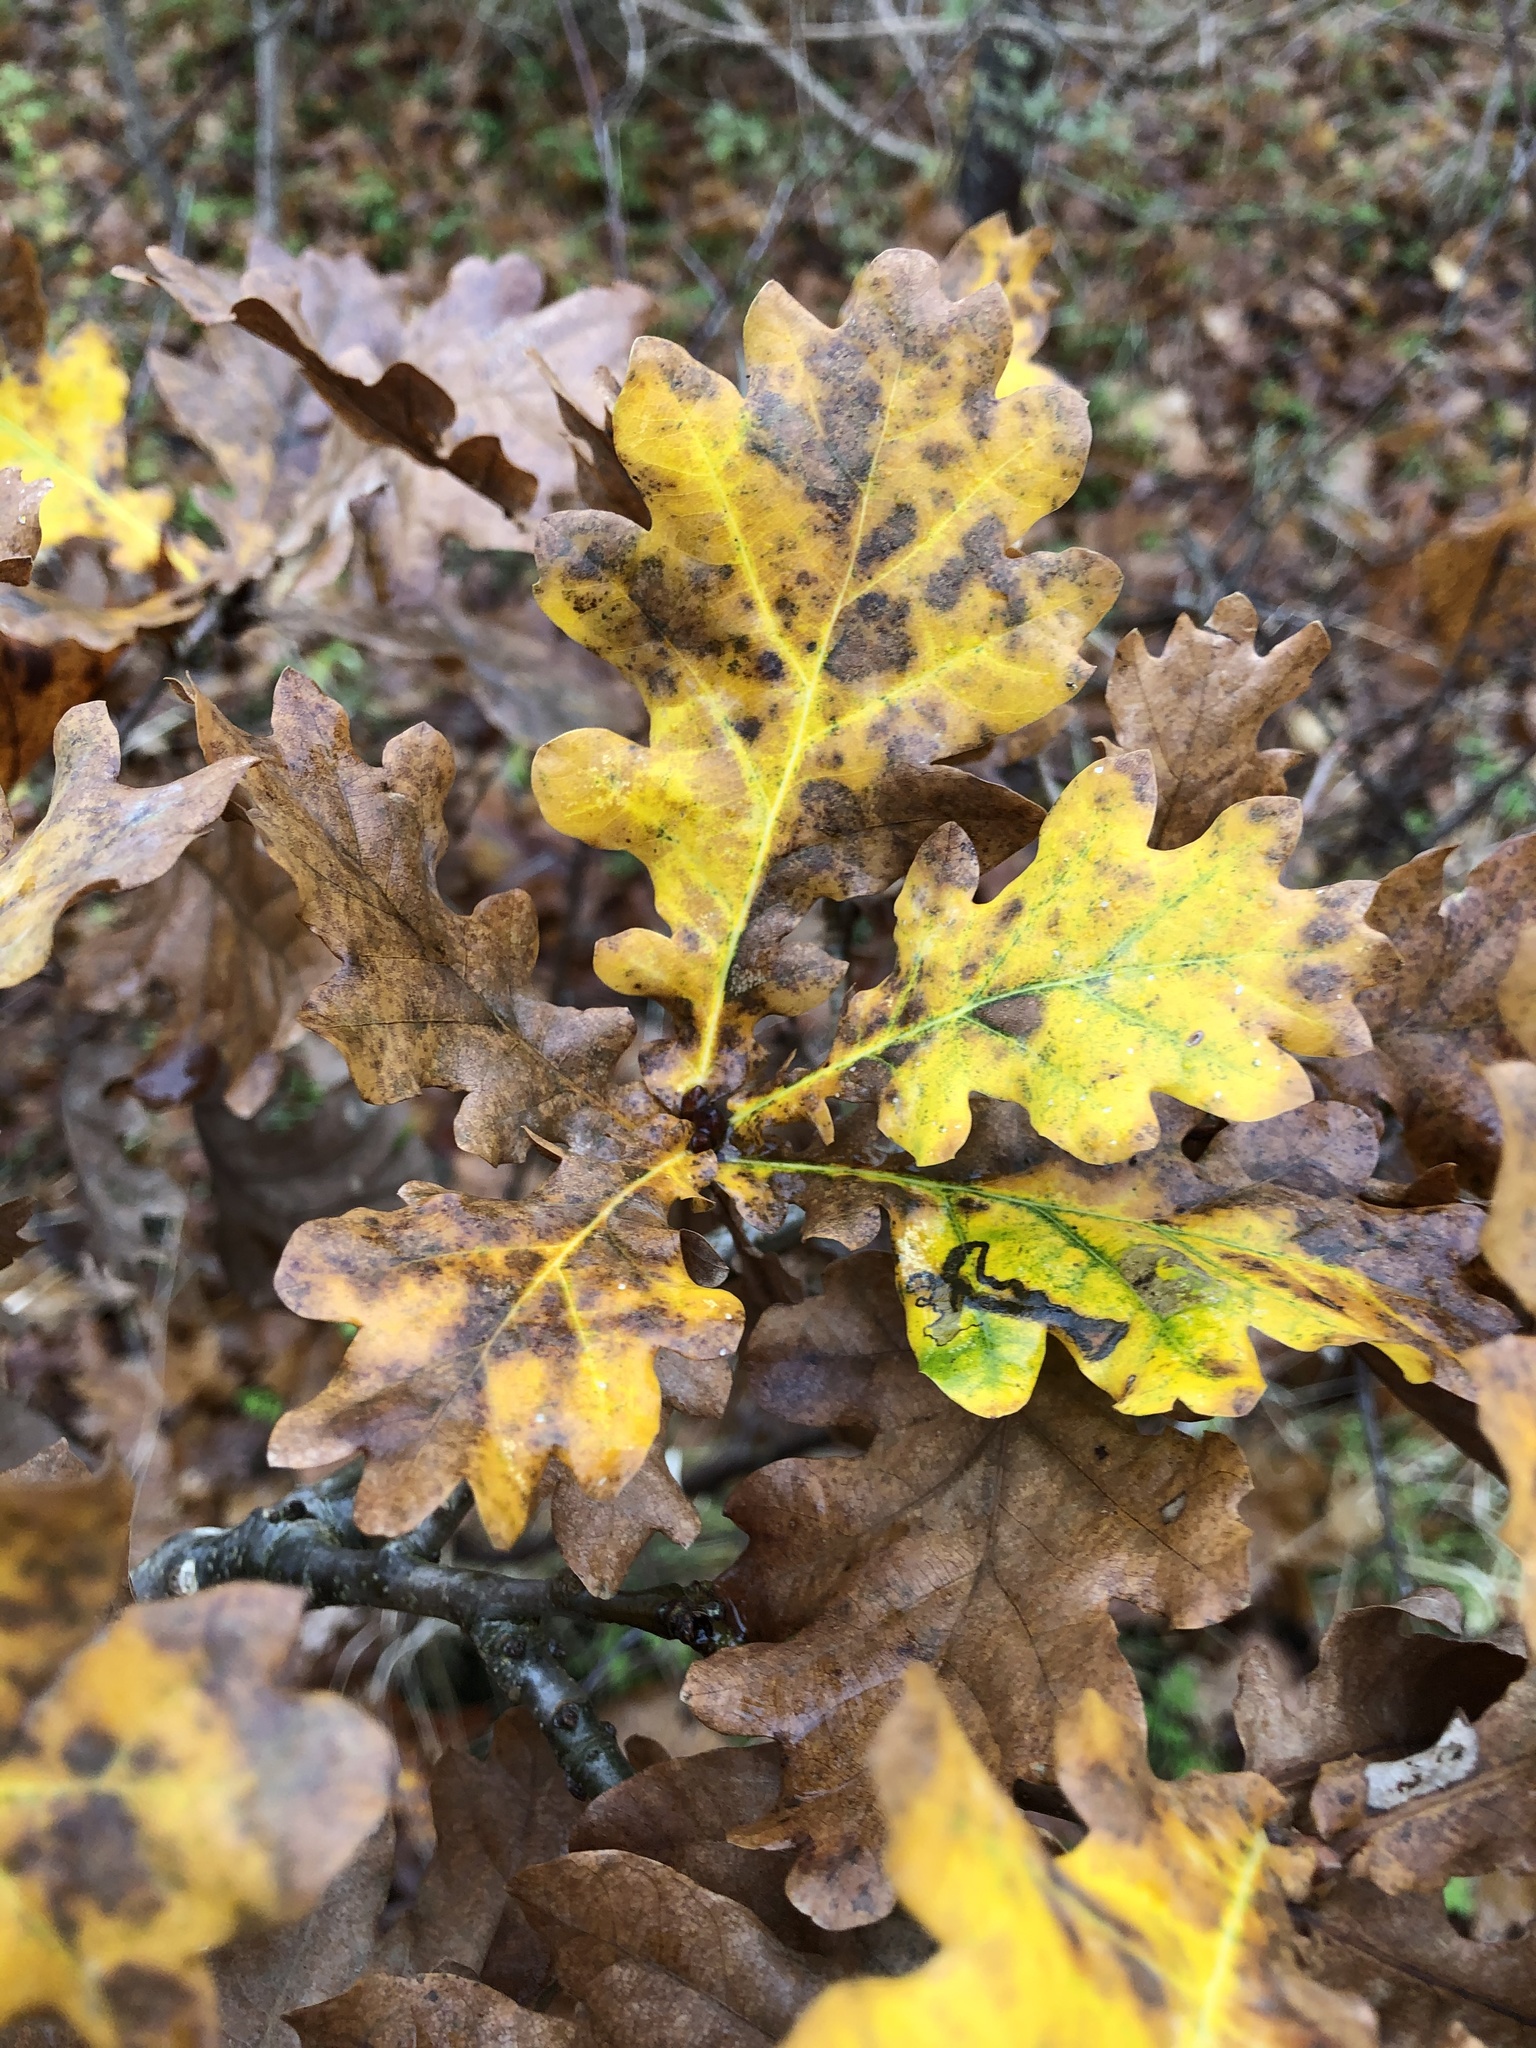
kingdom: Plantae
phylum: Tracheophyta
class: Magnoliopsida
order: Fagales
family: Fagaceae
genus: Quercus
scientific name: Quercus robur
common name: Pedunculate oak
